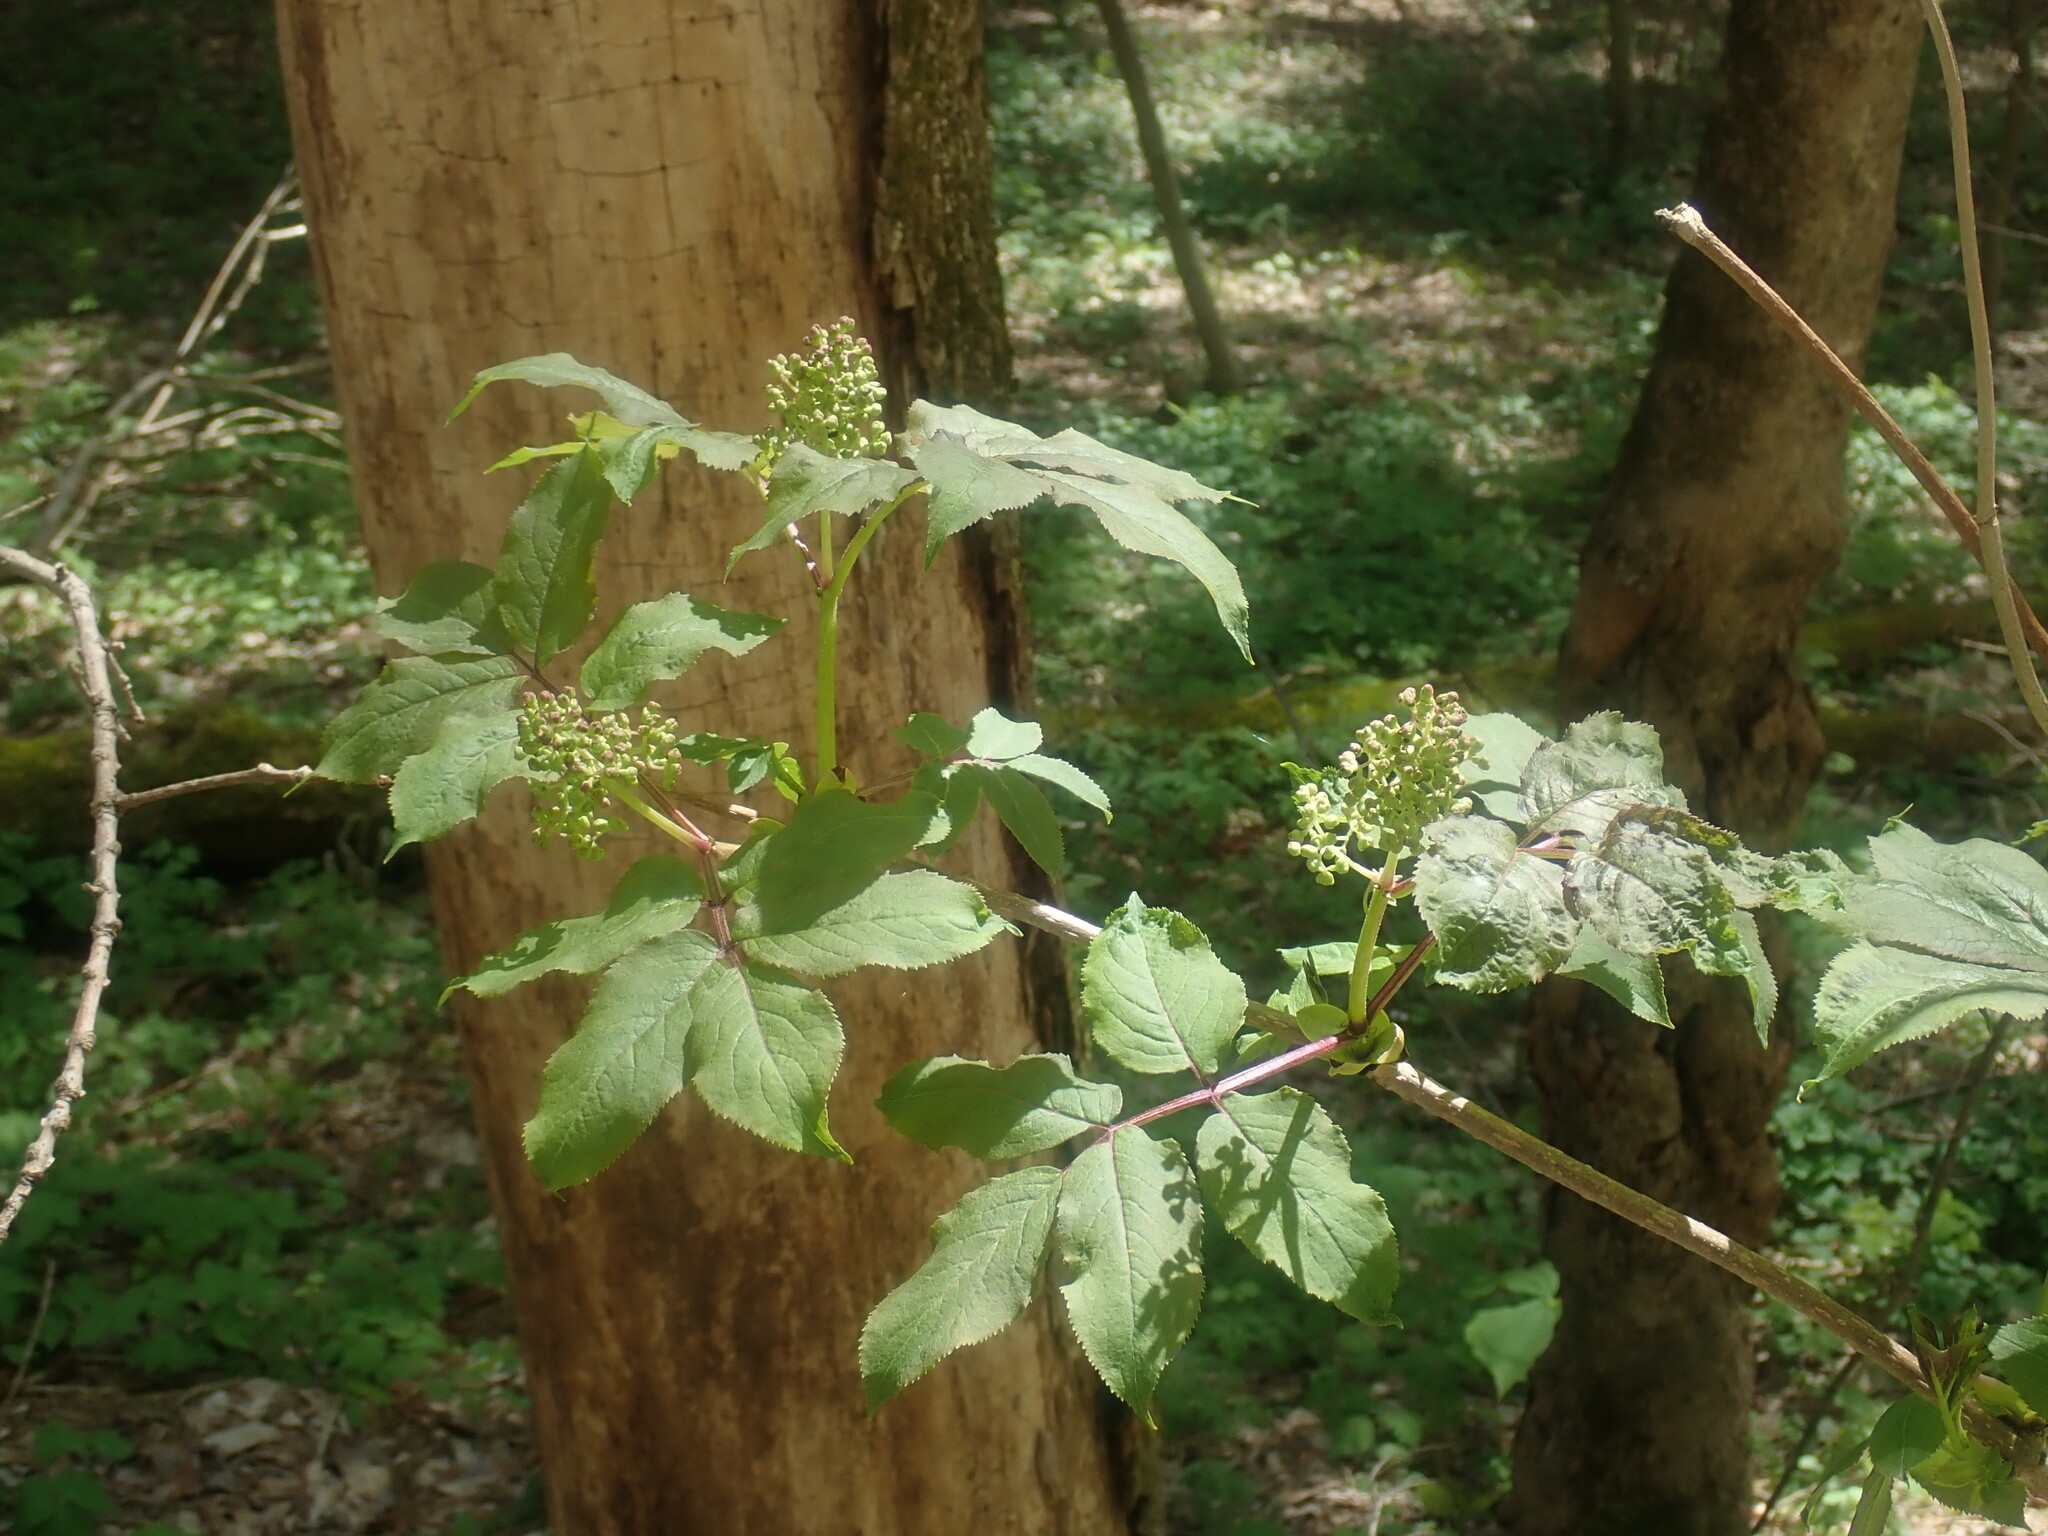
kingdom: Plantae
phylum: Tracheophyta
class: Magnoliopsida
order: Dipsacales
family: Viburnaceae
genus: Sambucus
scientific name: Sambucus racemosa
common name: Red-berried elder
